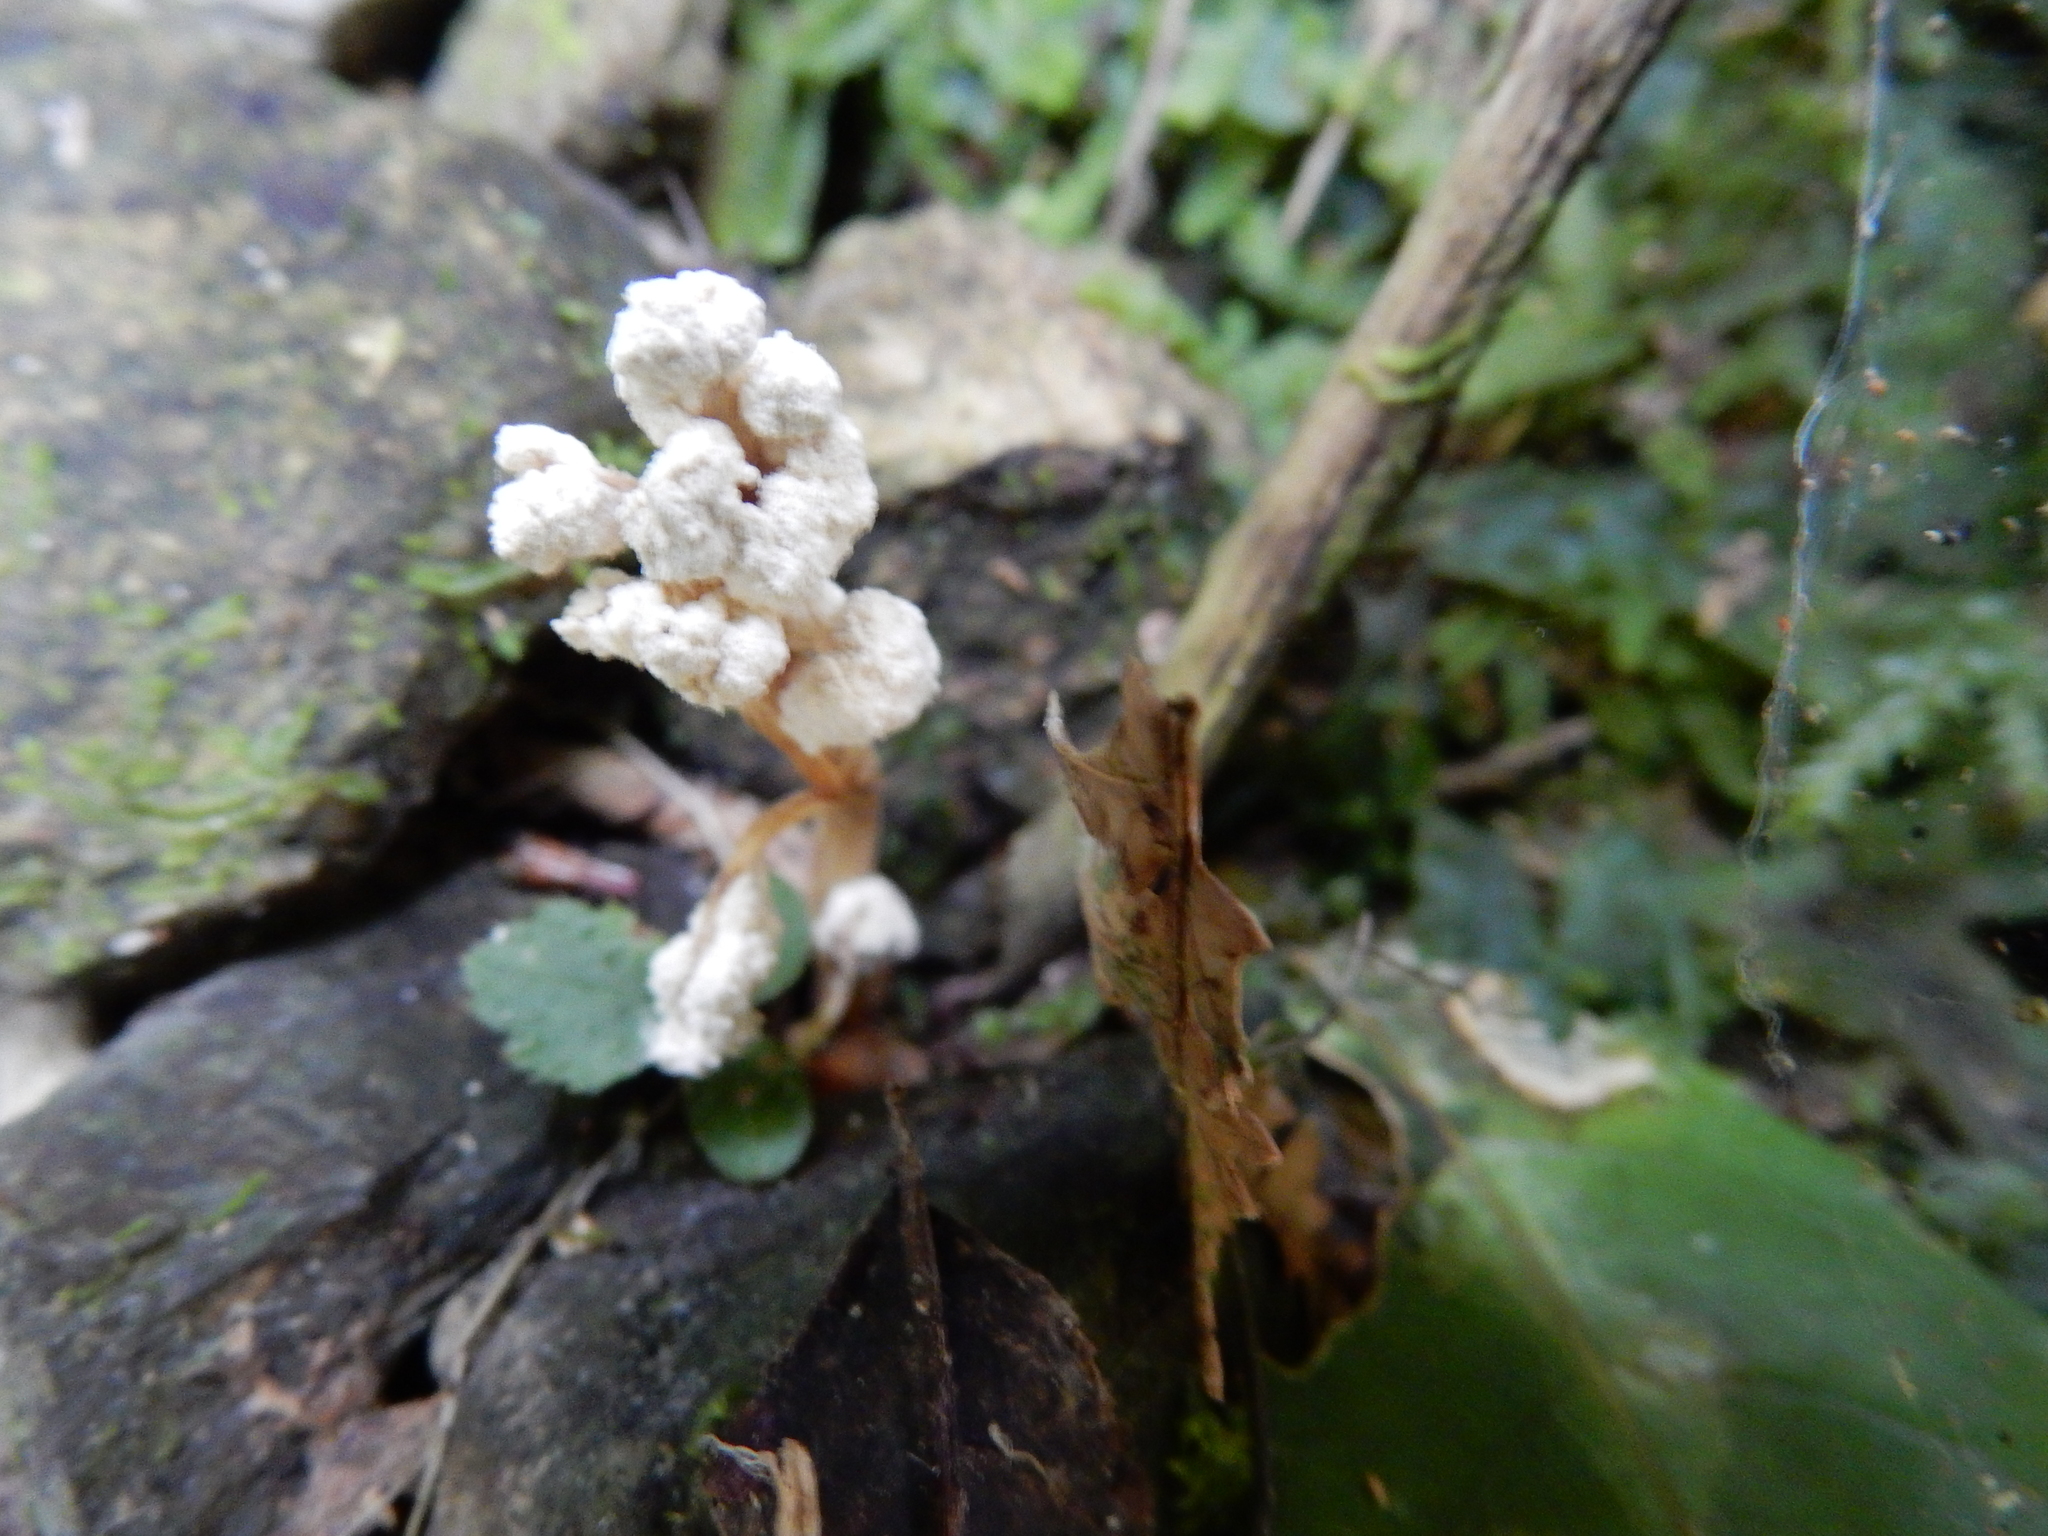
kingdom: Fungi
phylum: Ascomycota
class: Sordariomycetes
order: Hypocreales
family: Cordycipitaceae
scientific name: Cordycipitaceae
